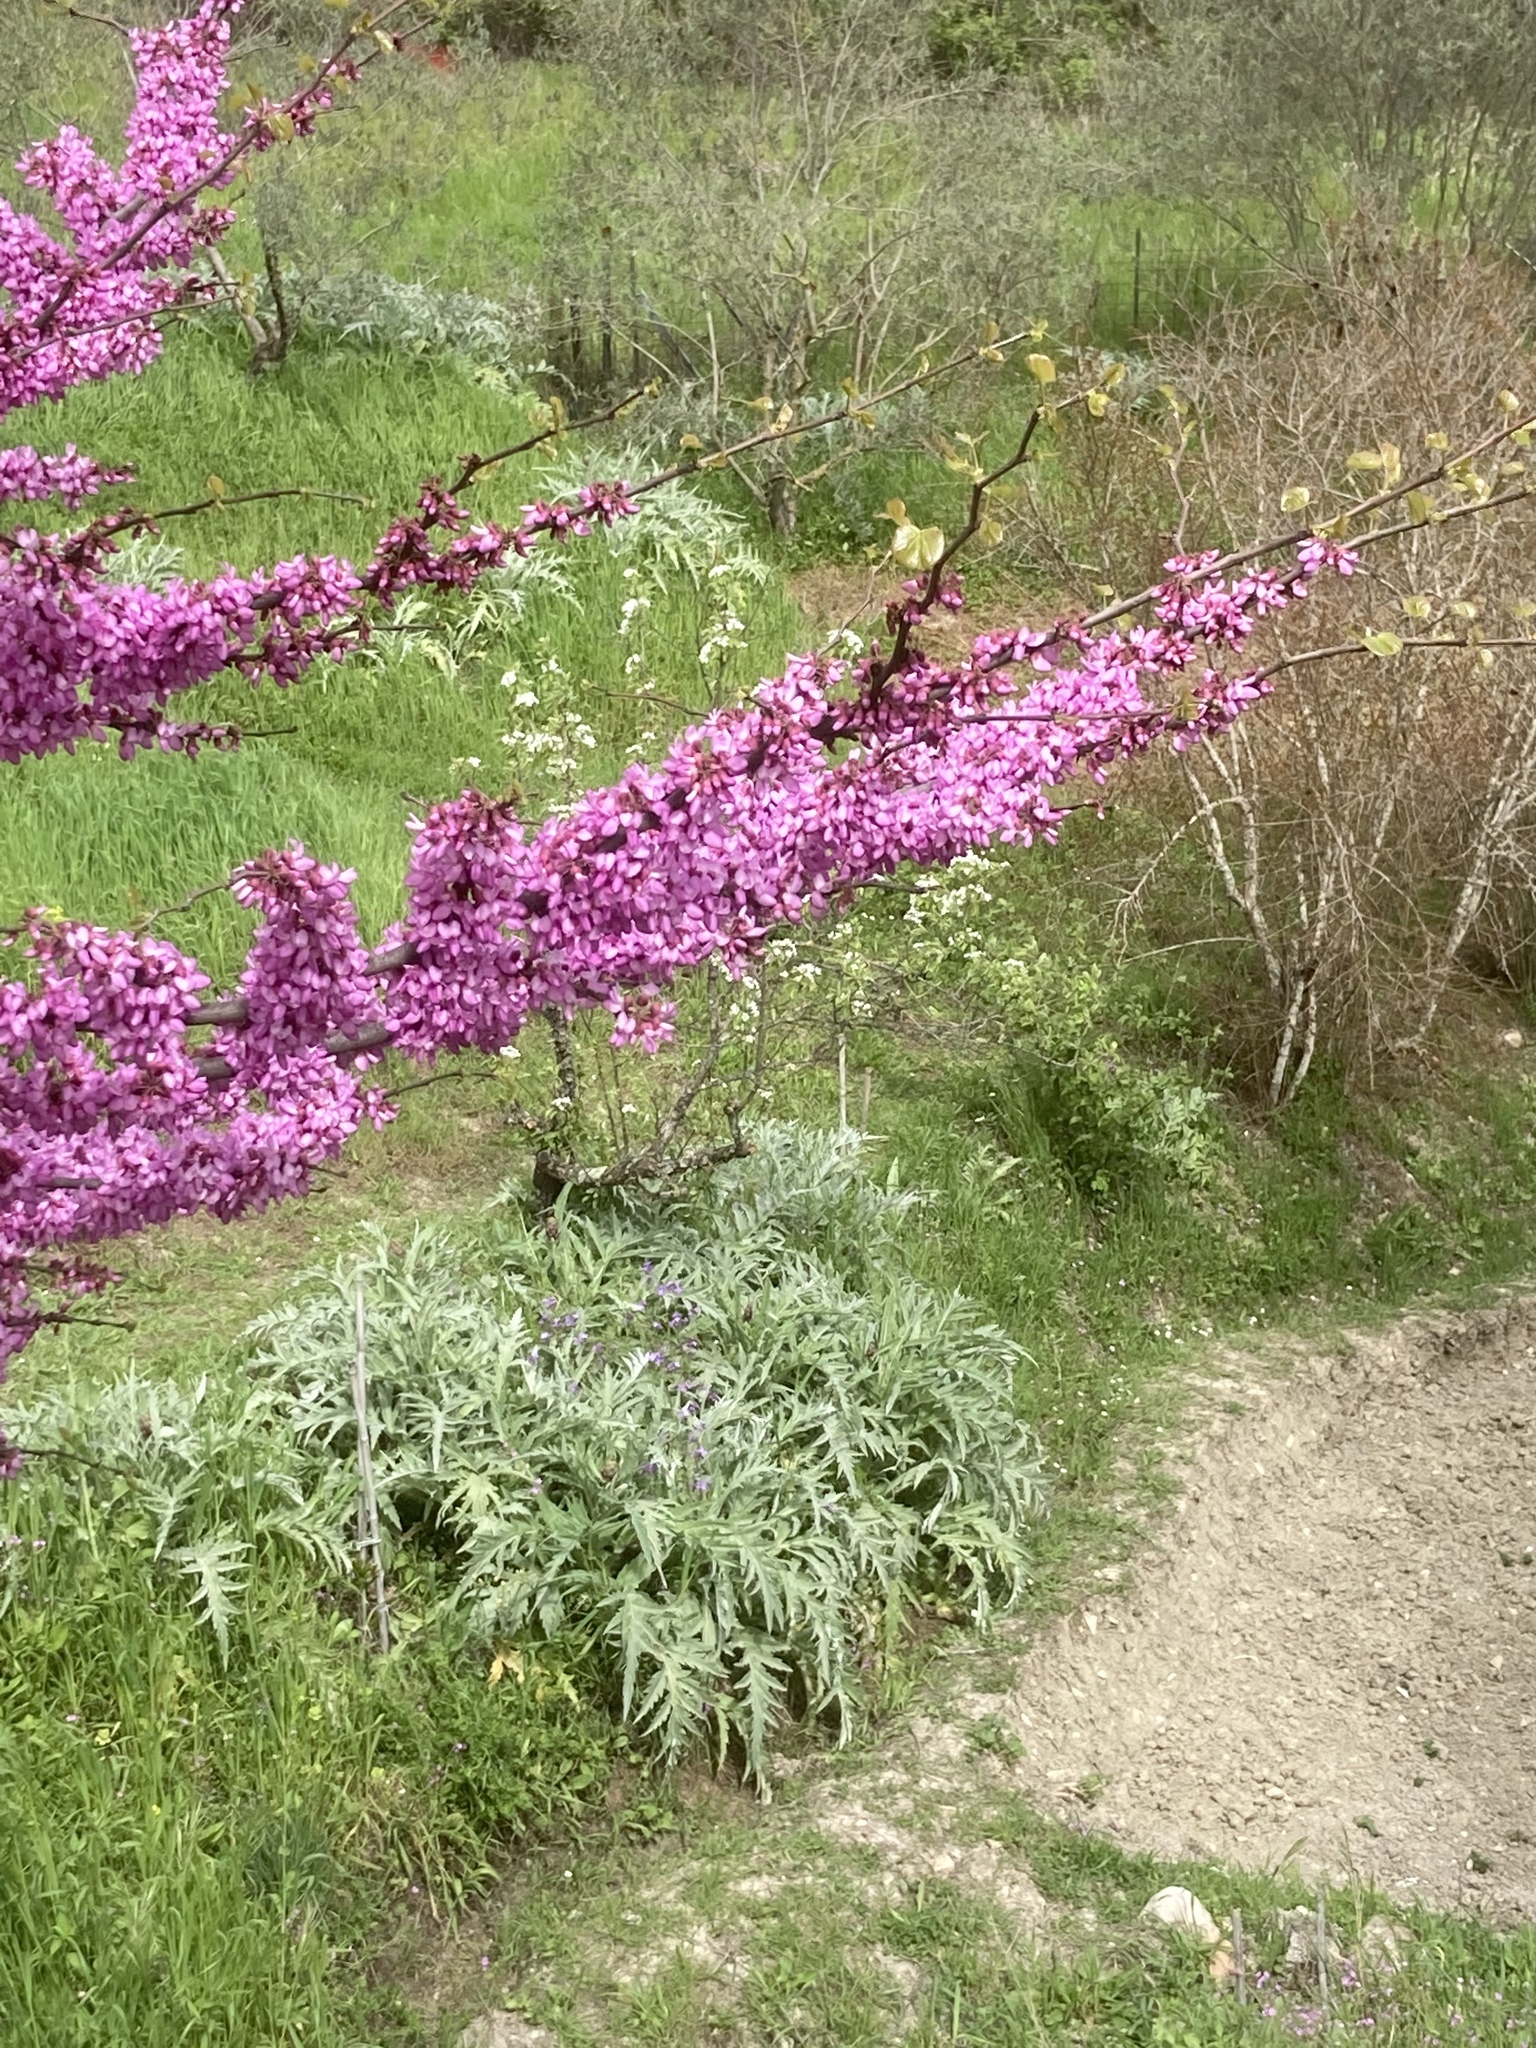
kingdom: Plantae
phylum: Tracheophyta
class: Magnoliopsida
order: Fabales
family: Fabaceae
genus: Cercis
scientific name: Cercis siliquastrum
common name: Judas tree
